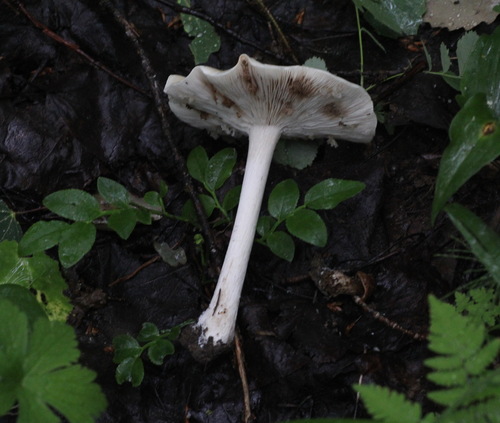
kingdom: Fungi
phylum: Basidiomycota
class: Agaricomycetes
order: Agaricales
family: Tricholomataceae
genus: Melanoleuca
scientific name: Melanoleuca strictipes
